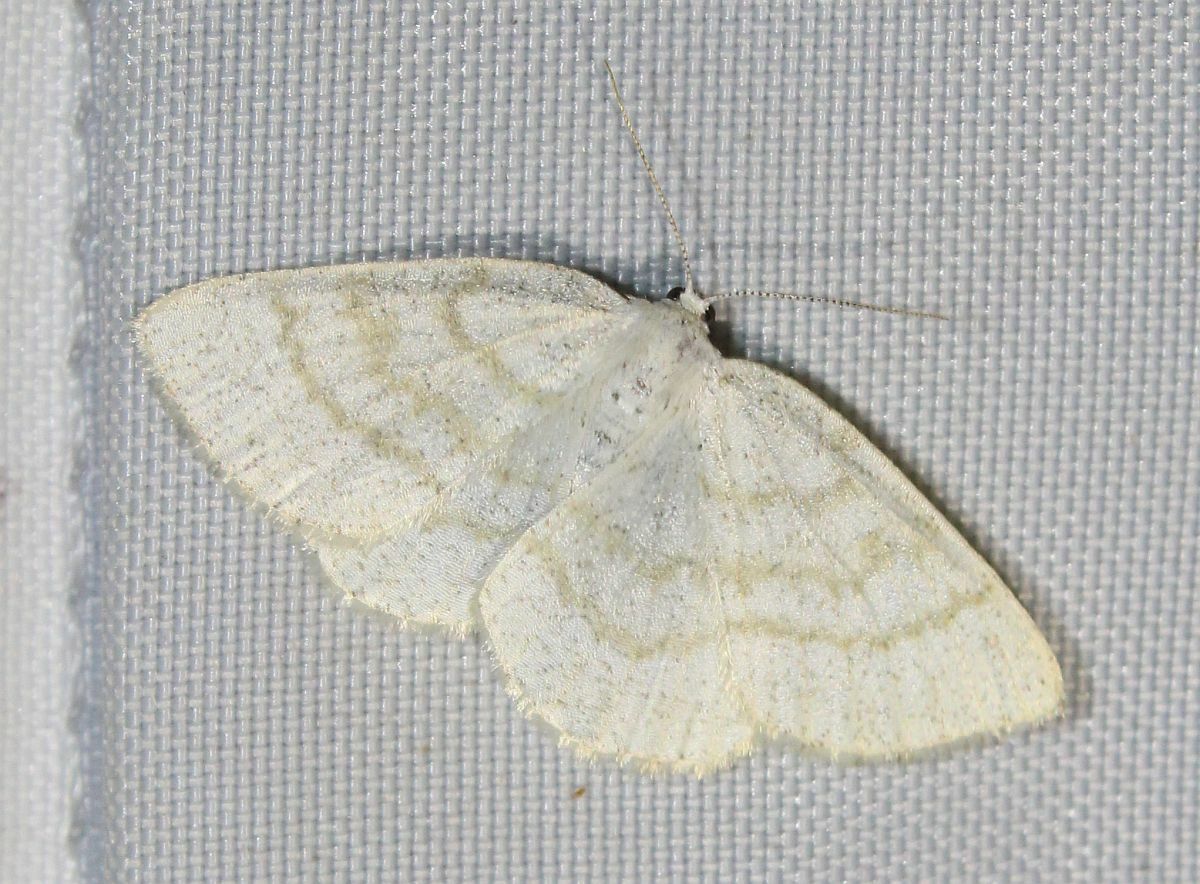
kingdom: Animalia
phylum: Arthropoda
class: Insecta
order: Lepidoptera
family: Geometridae
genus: Cabera
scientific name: Cabera exanthemata
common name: Common wave
